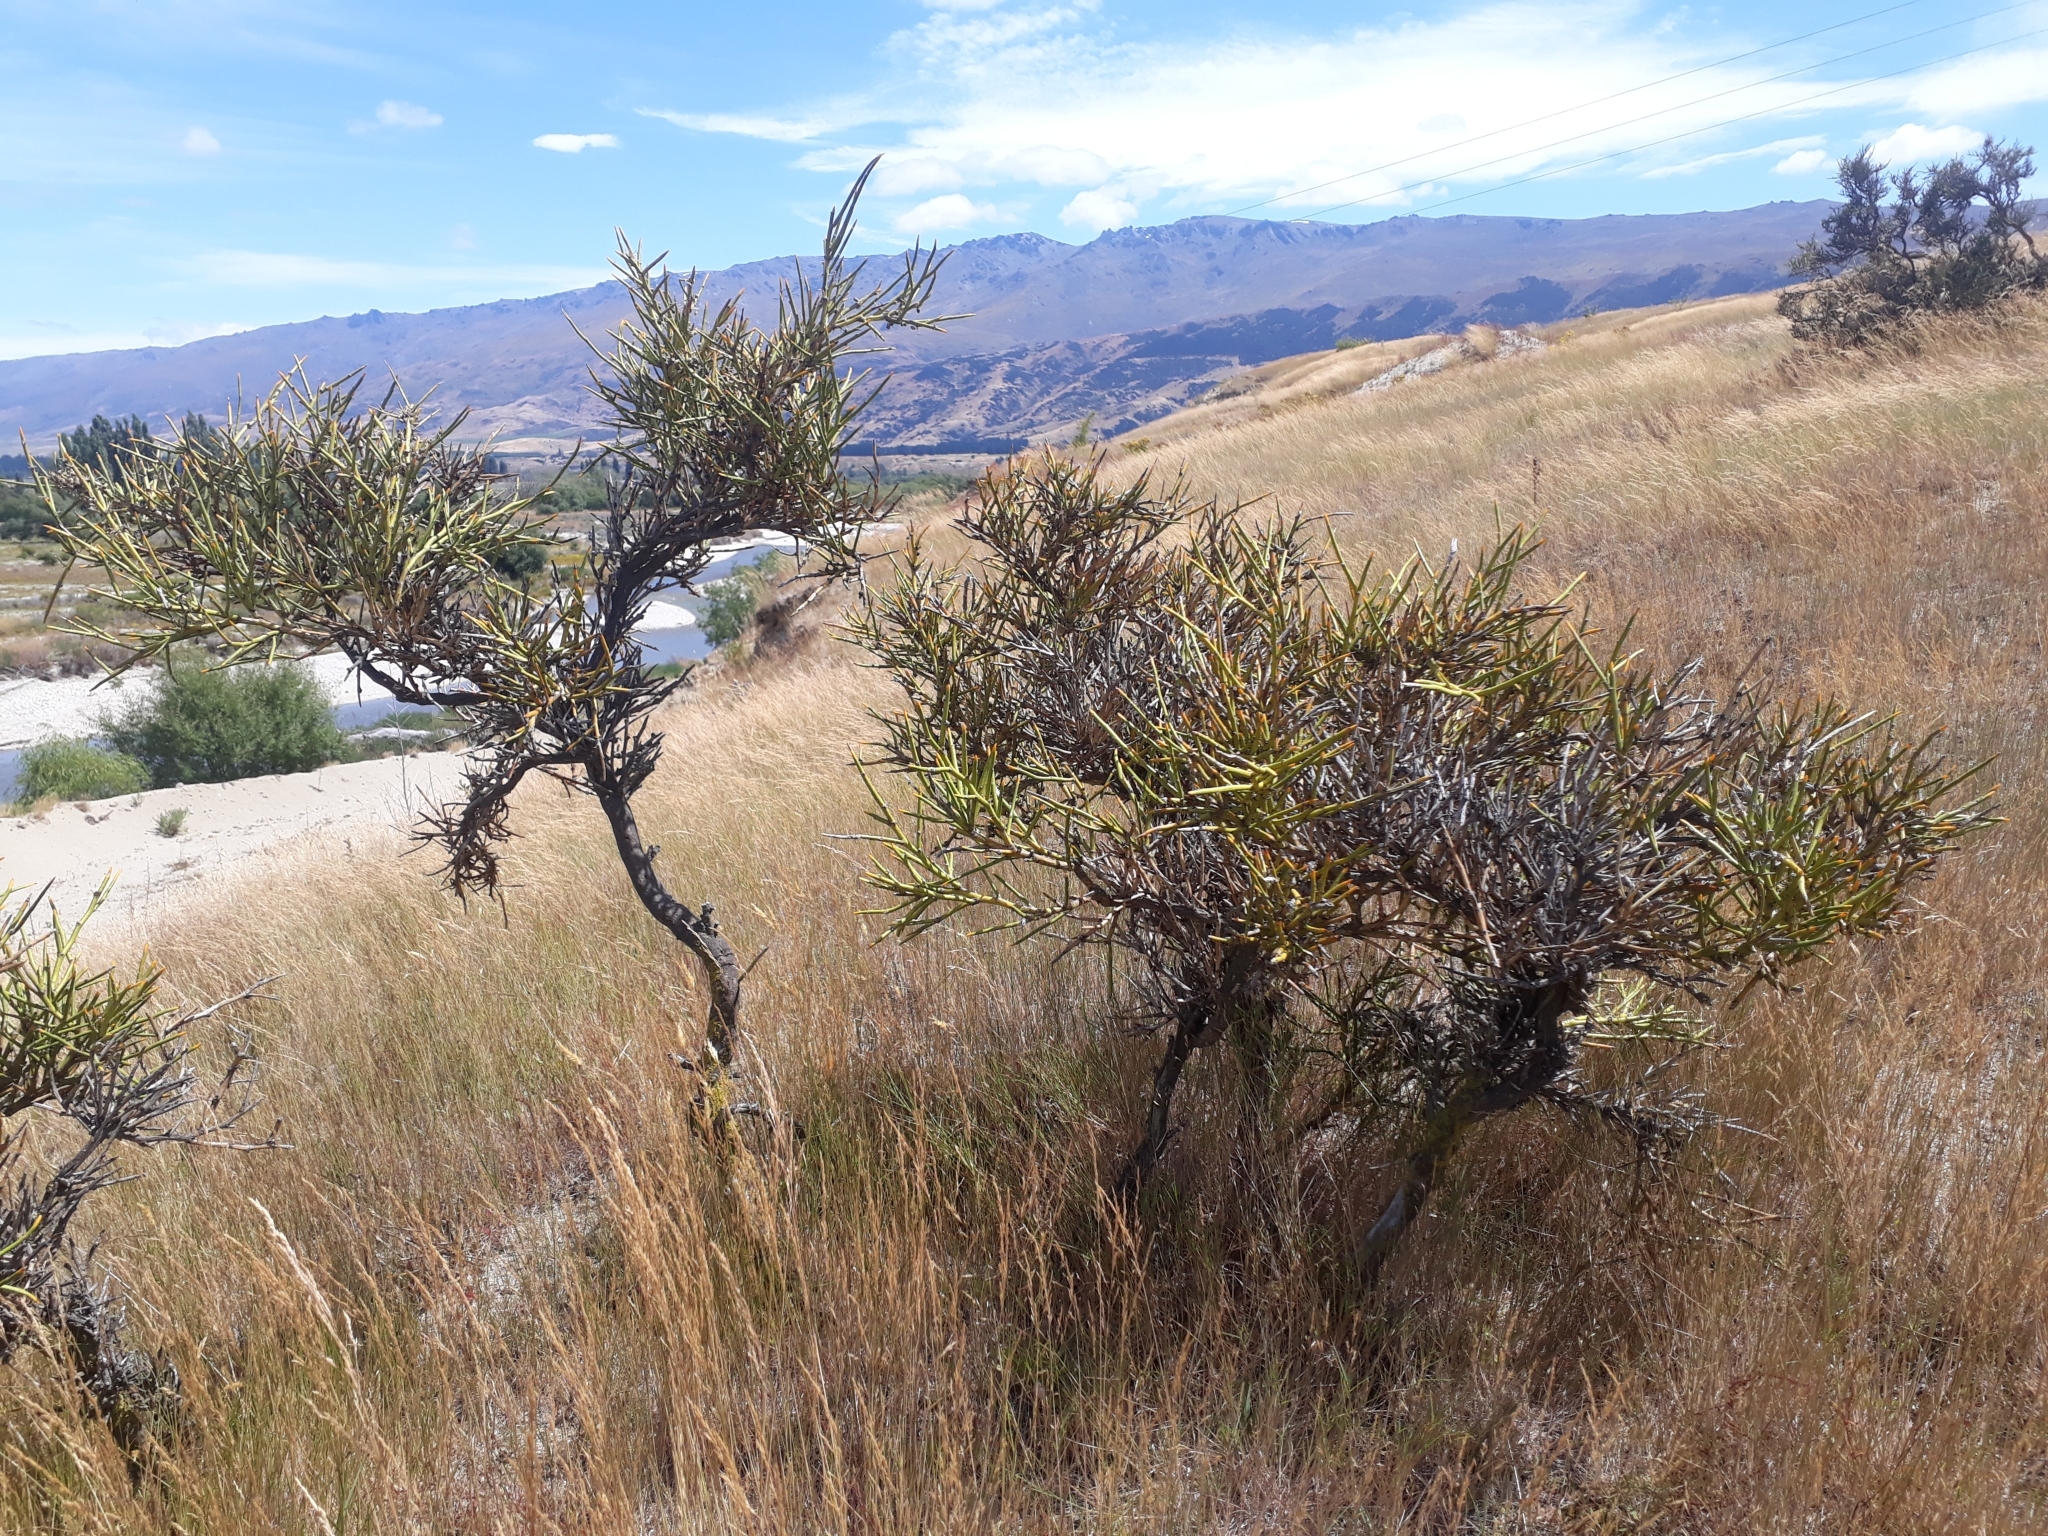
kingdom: Plantae
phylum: Tracheophyta
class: Magnoliopsida
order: Fabales
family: Fabaceae
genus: Carmichaelia
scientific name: Carmichaelia petriei
